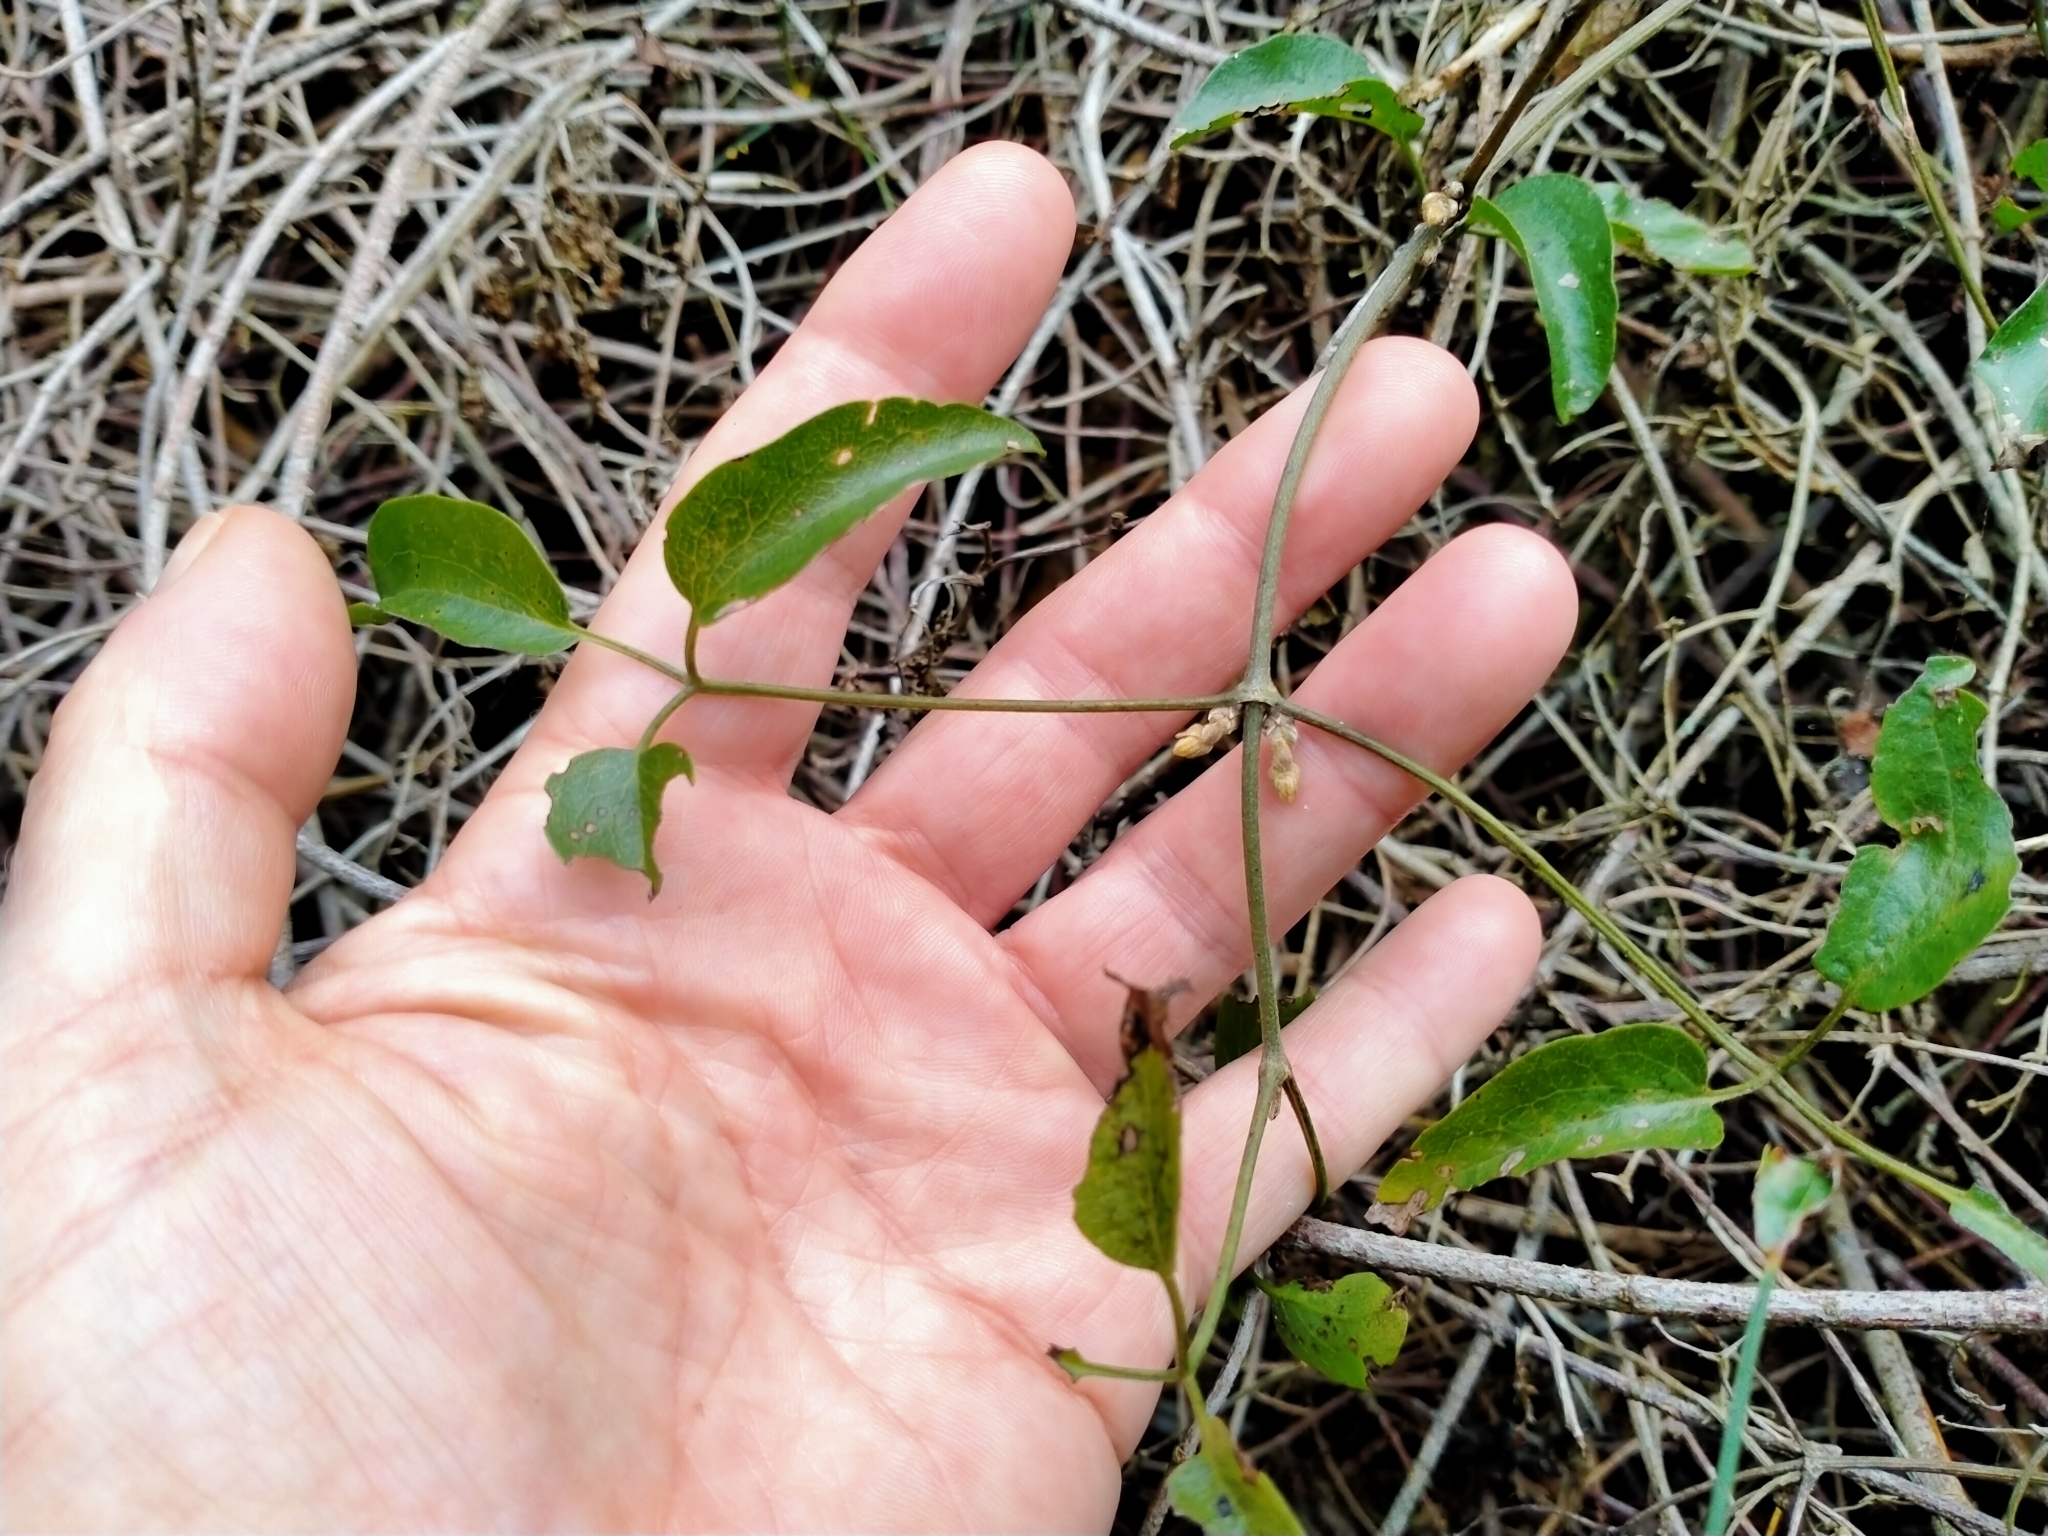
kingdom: Plantae
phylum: Tracheophyta
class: Magnoliopsida
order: Ranunculales
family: Ranunculaceae
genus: Clematis
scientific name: Clematis foetida
